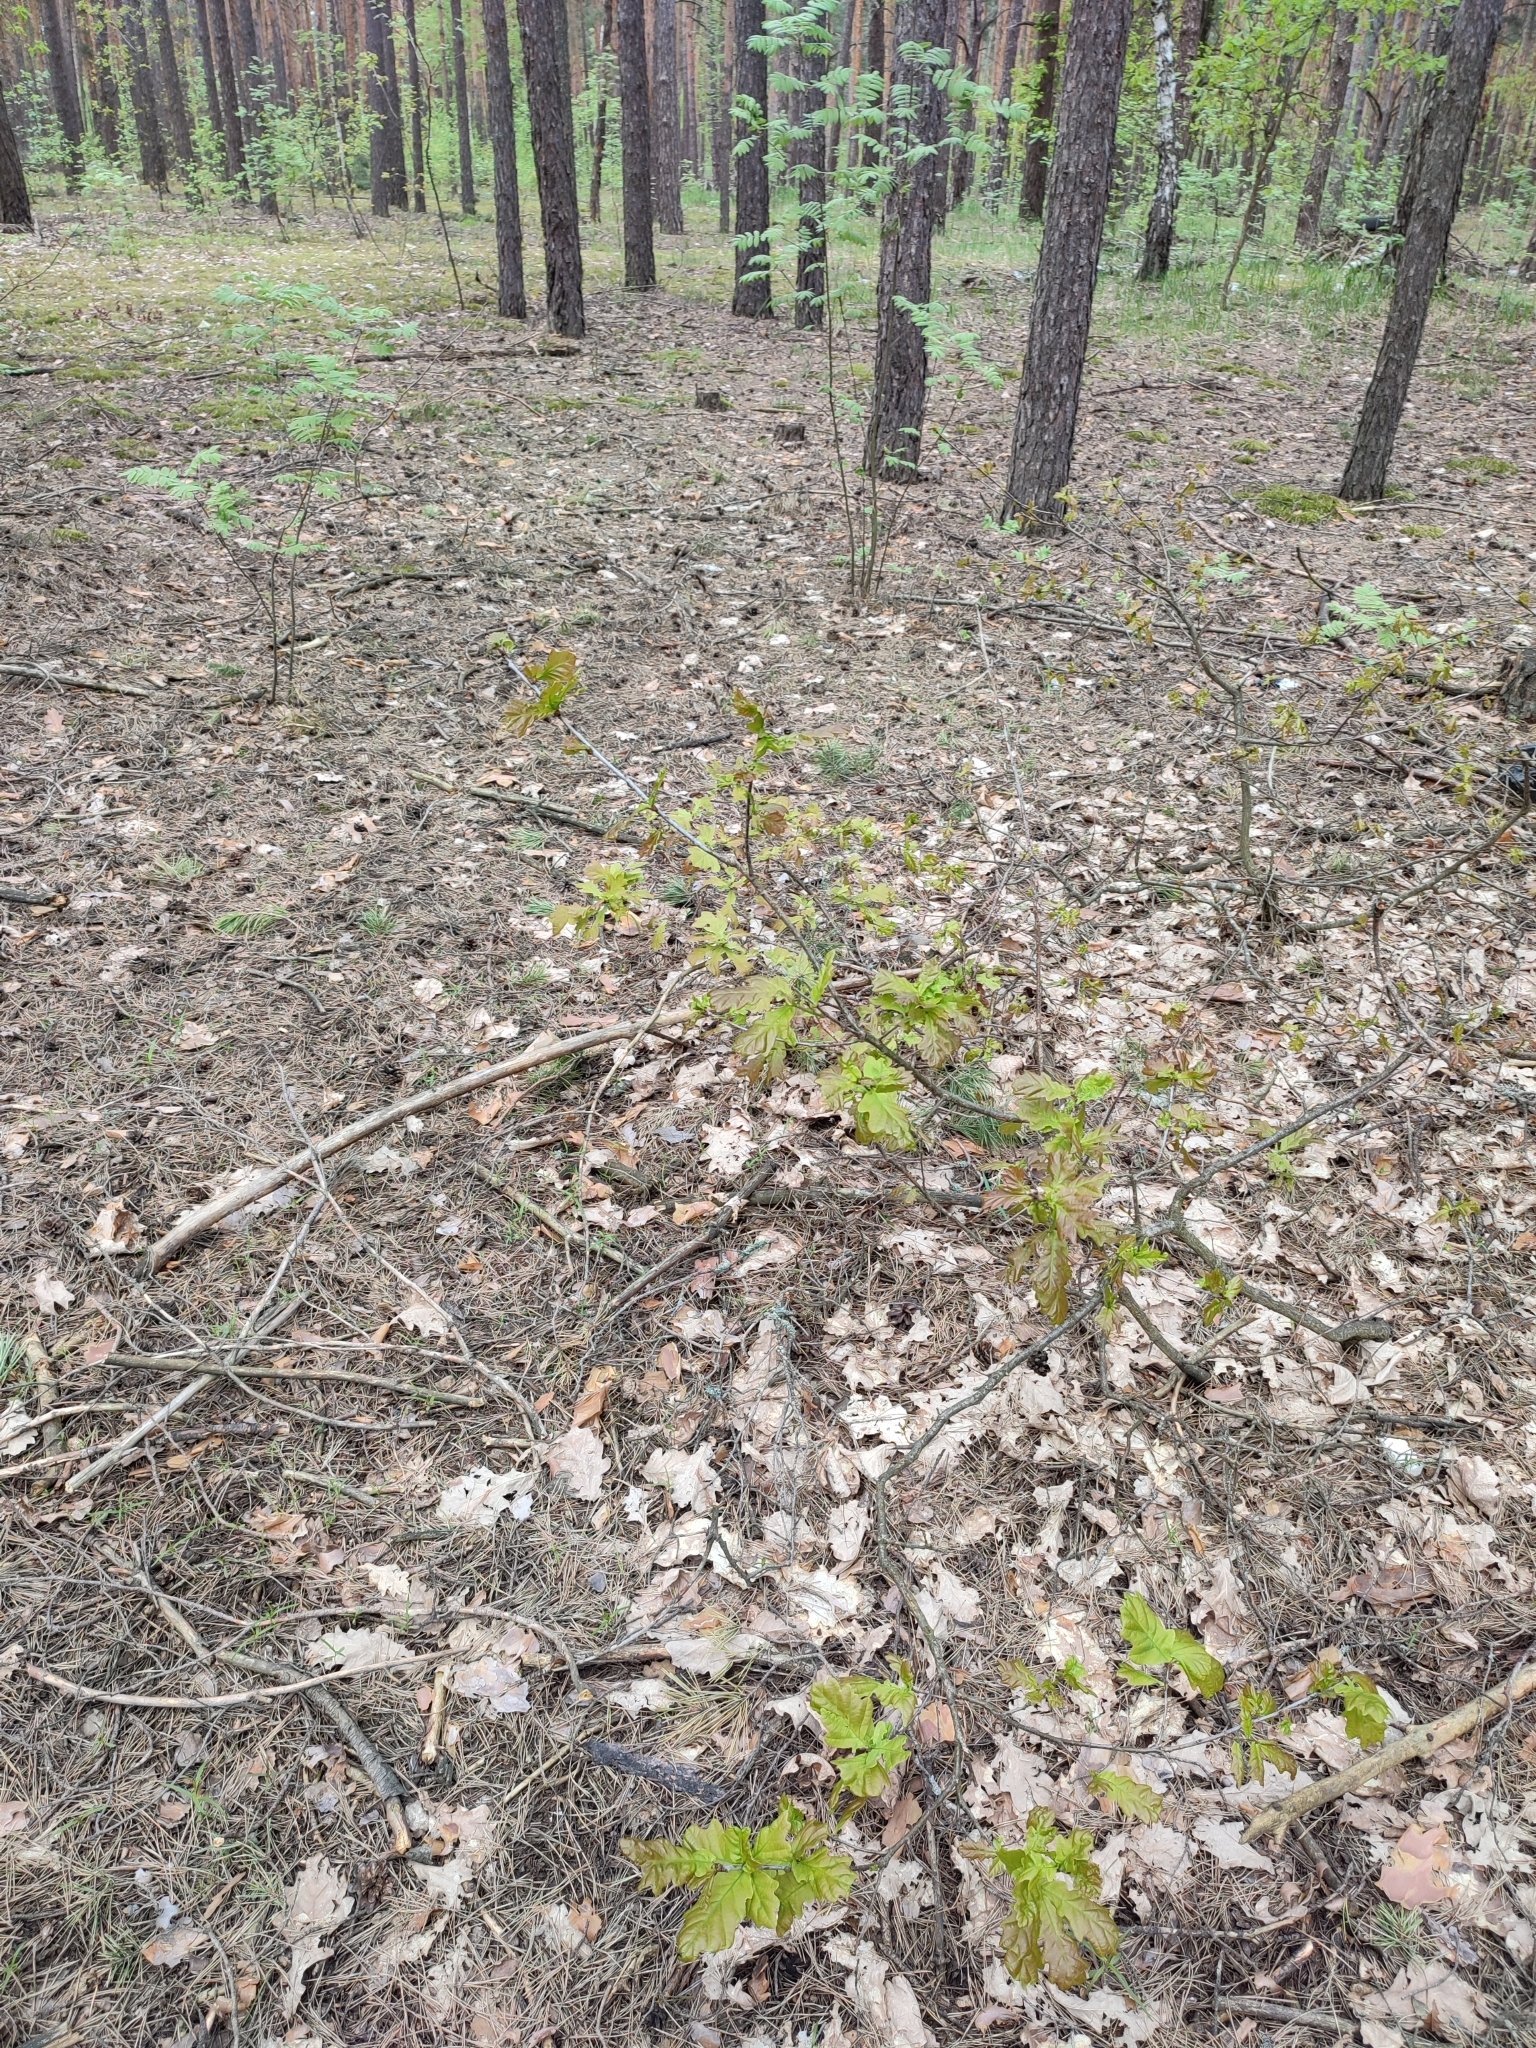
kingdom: Plantae
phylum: Tracheophyta
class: Magnoliopsida
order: Fagales
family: Fagaceae
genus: Quercus
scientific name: Quercus robur
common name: Pedunculate oak
